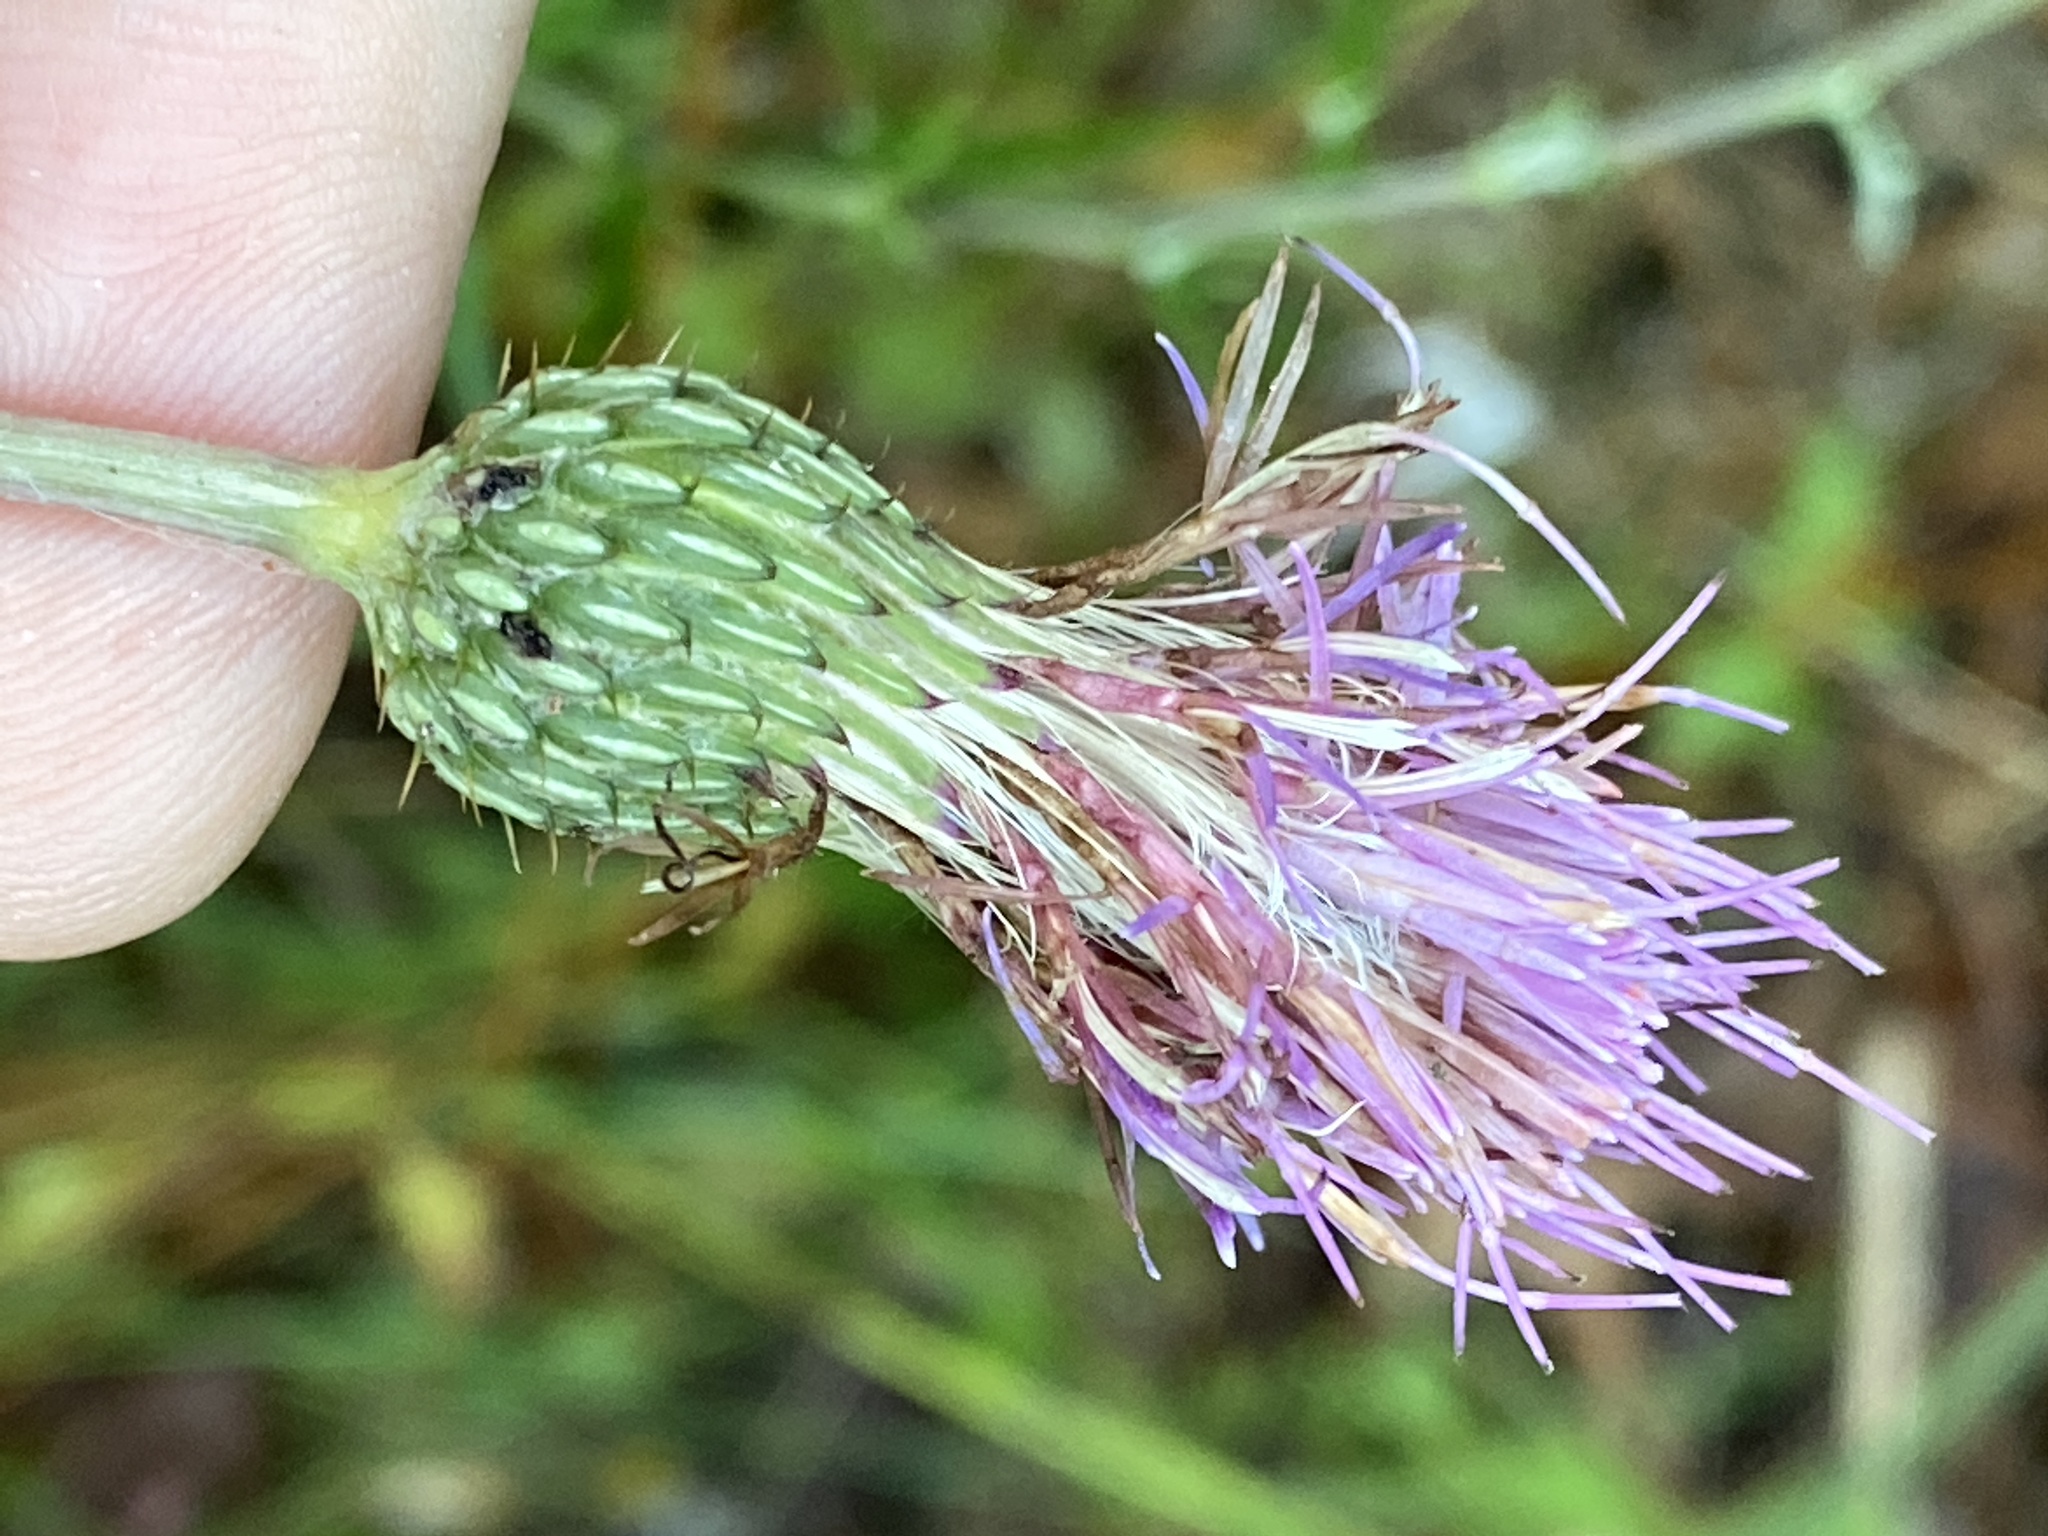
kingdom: Plantae
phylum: Tracheophyta
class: Magnoliopsida
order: Asterales
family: Asteraceae
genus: Cirsium
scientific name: Cirsium virginianum
